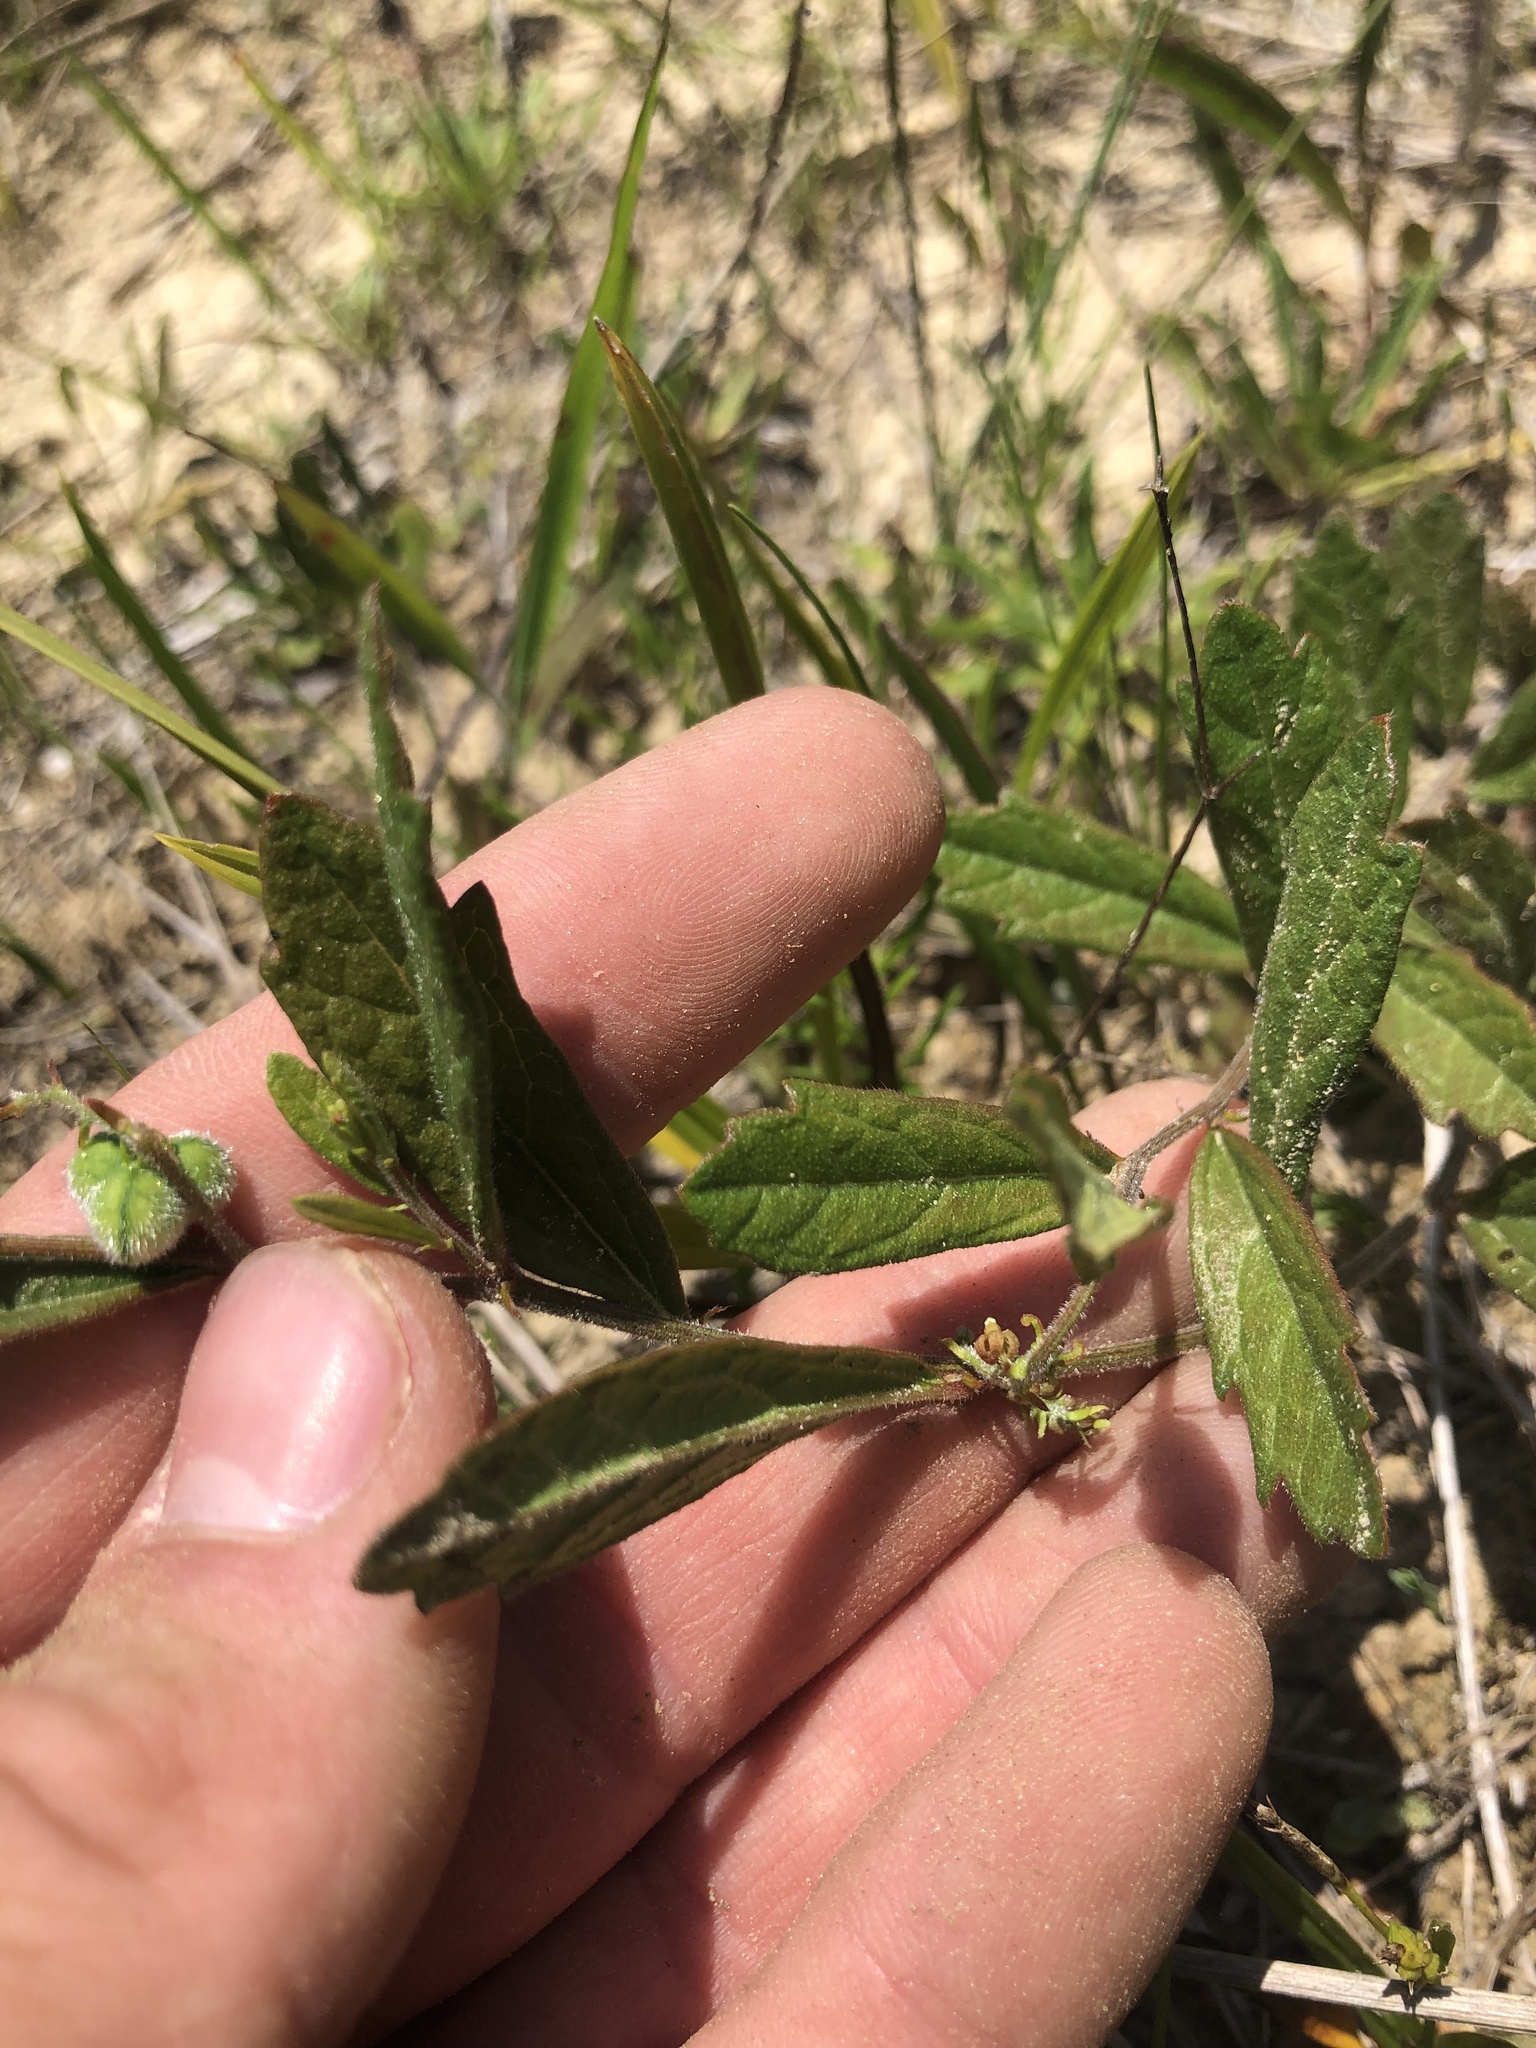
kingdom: Plantae
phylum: Tracheophyta
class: Magnoliopsida
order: Malpighiales
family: Euphorbiaceae
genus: Tragia
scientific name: Tragia urens
